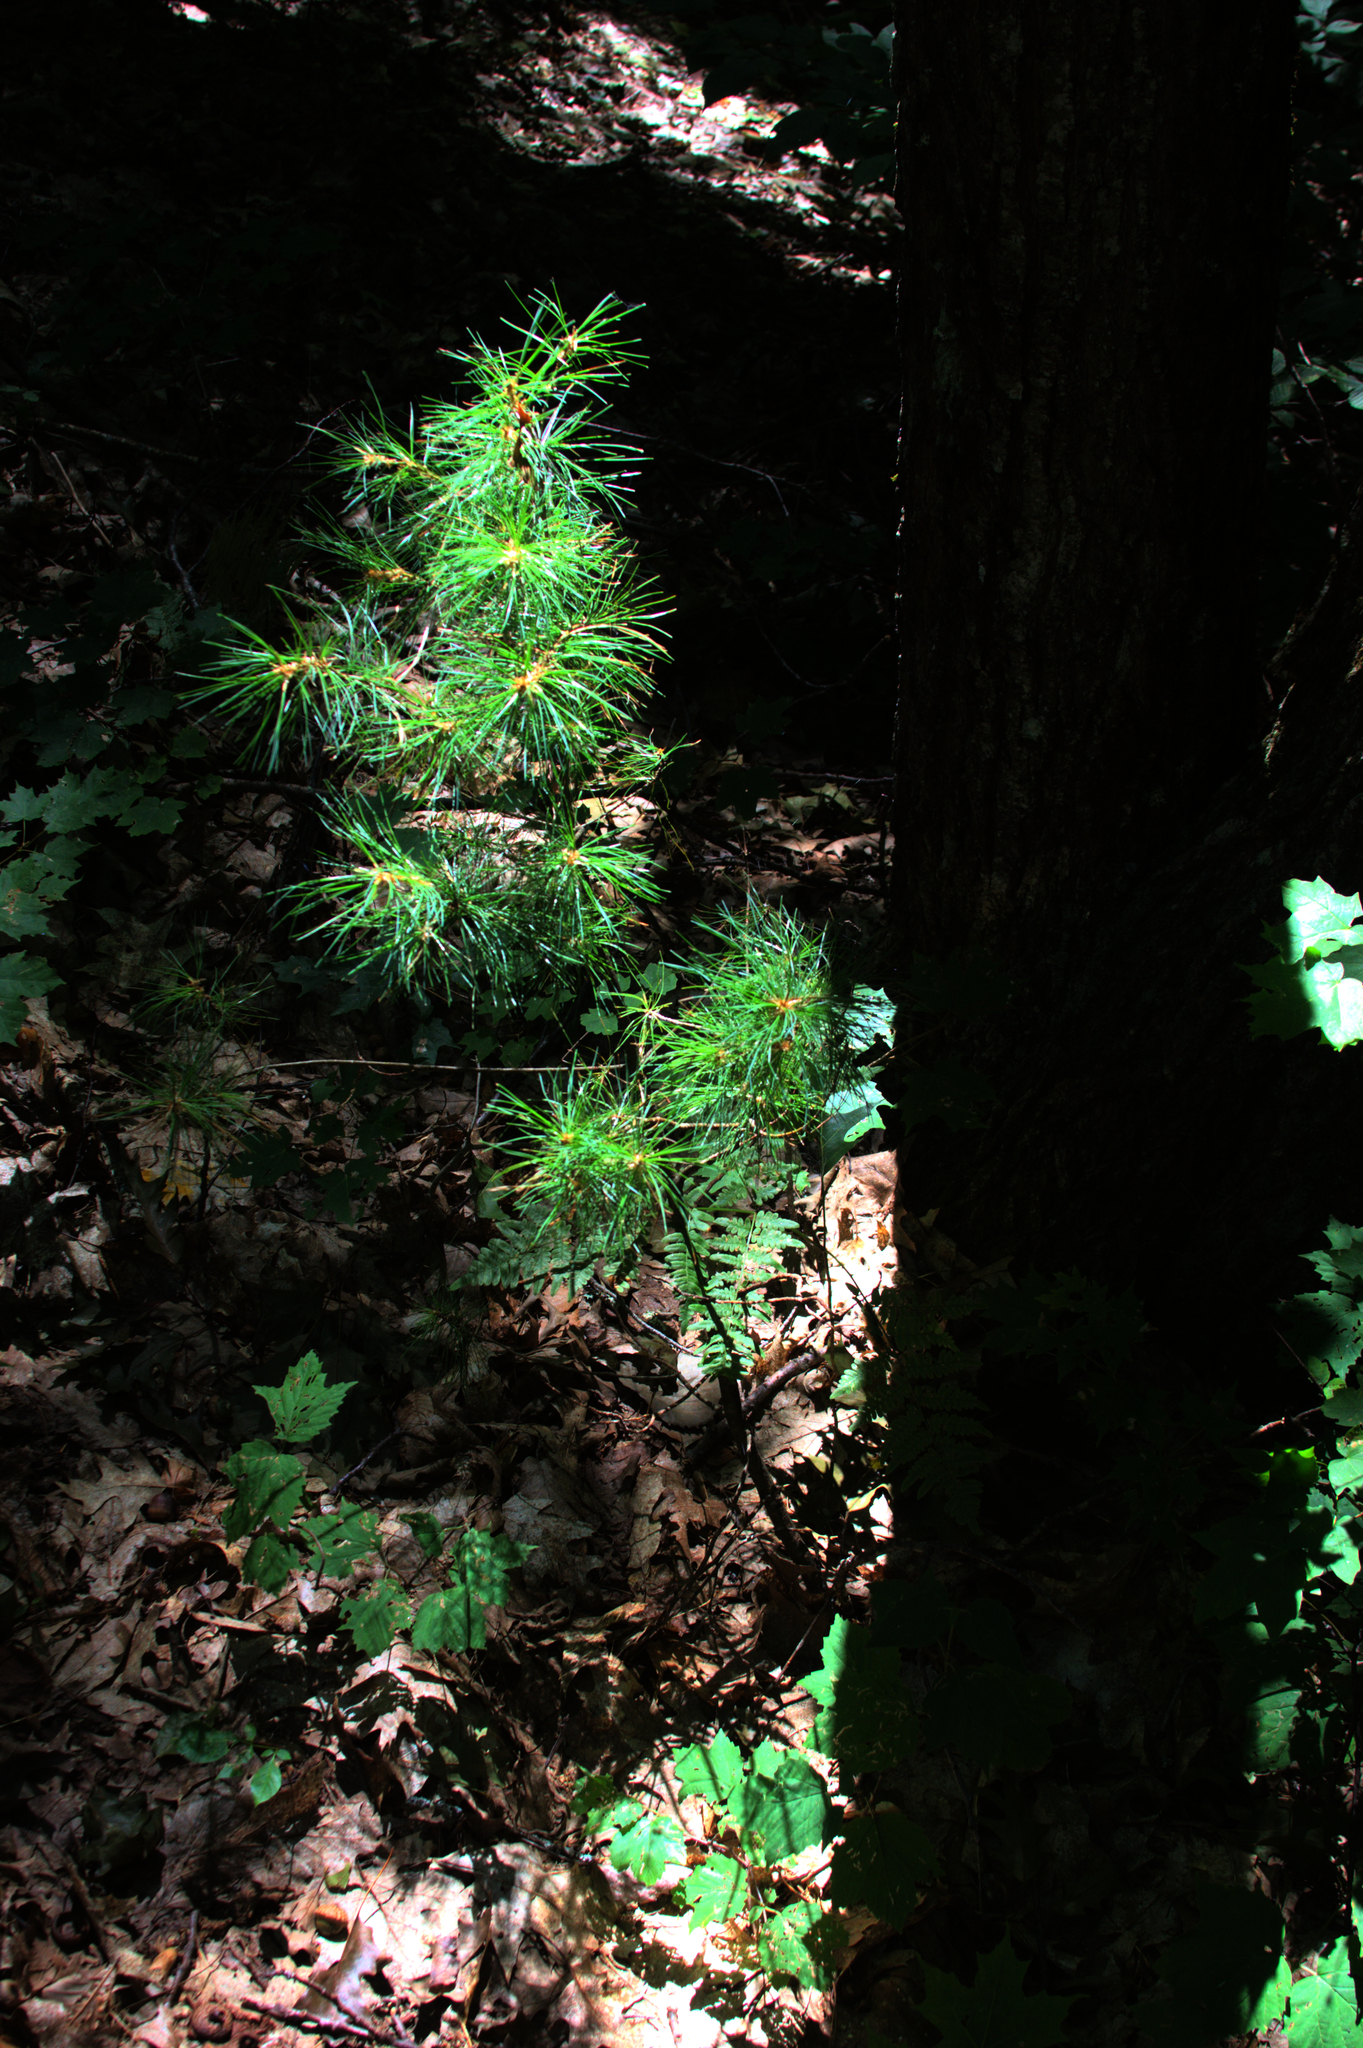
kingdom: Plantae
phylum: Tracheophyta
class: Pinopsida
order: Pinales
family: Pinaceae
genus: Pinus
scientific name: Pinus strobus
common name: Weymouth pine
